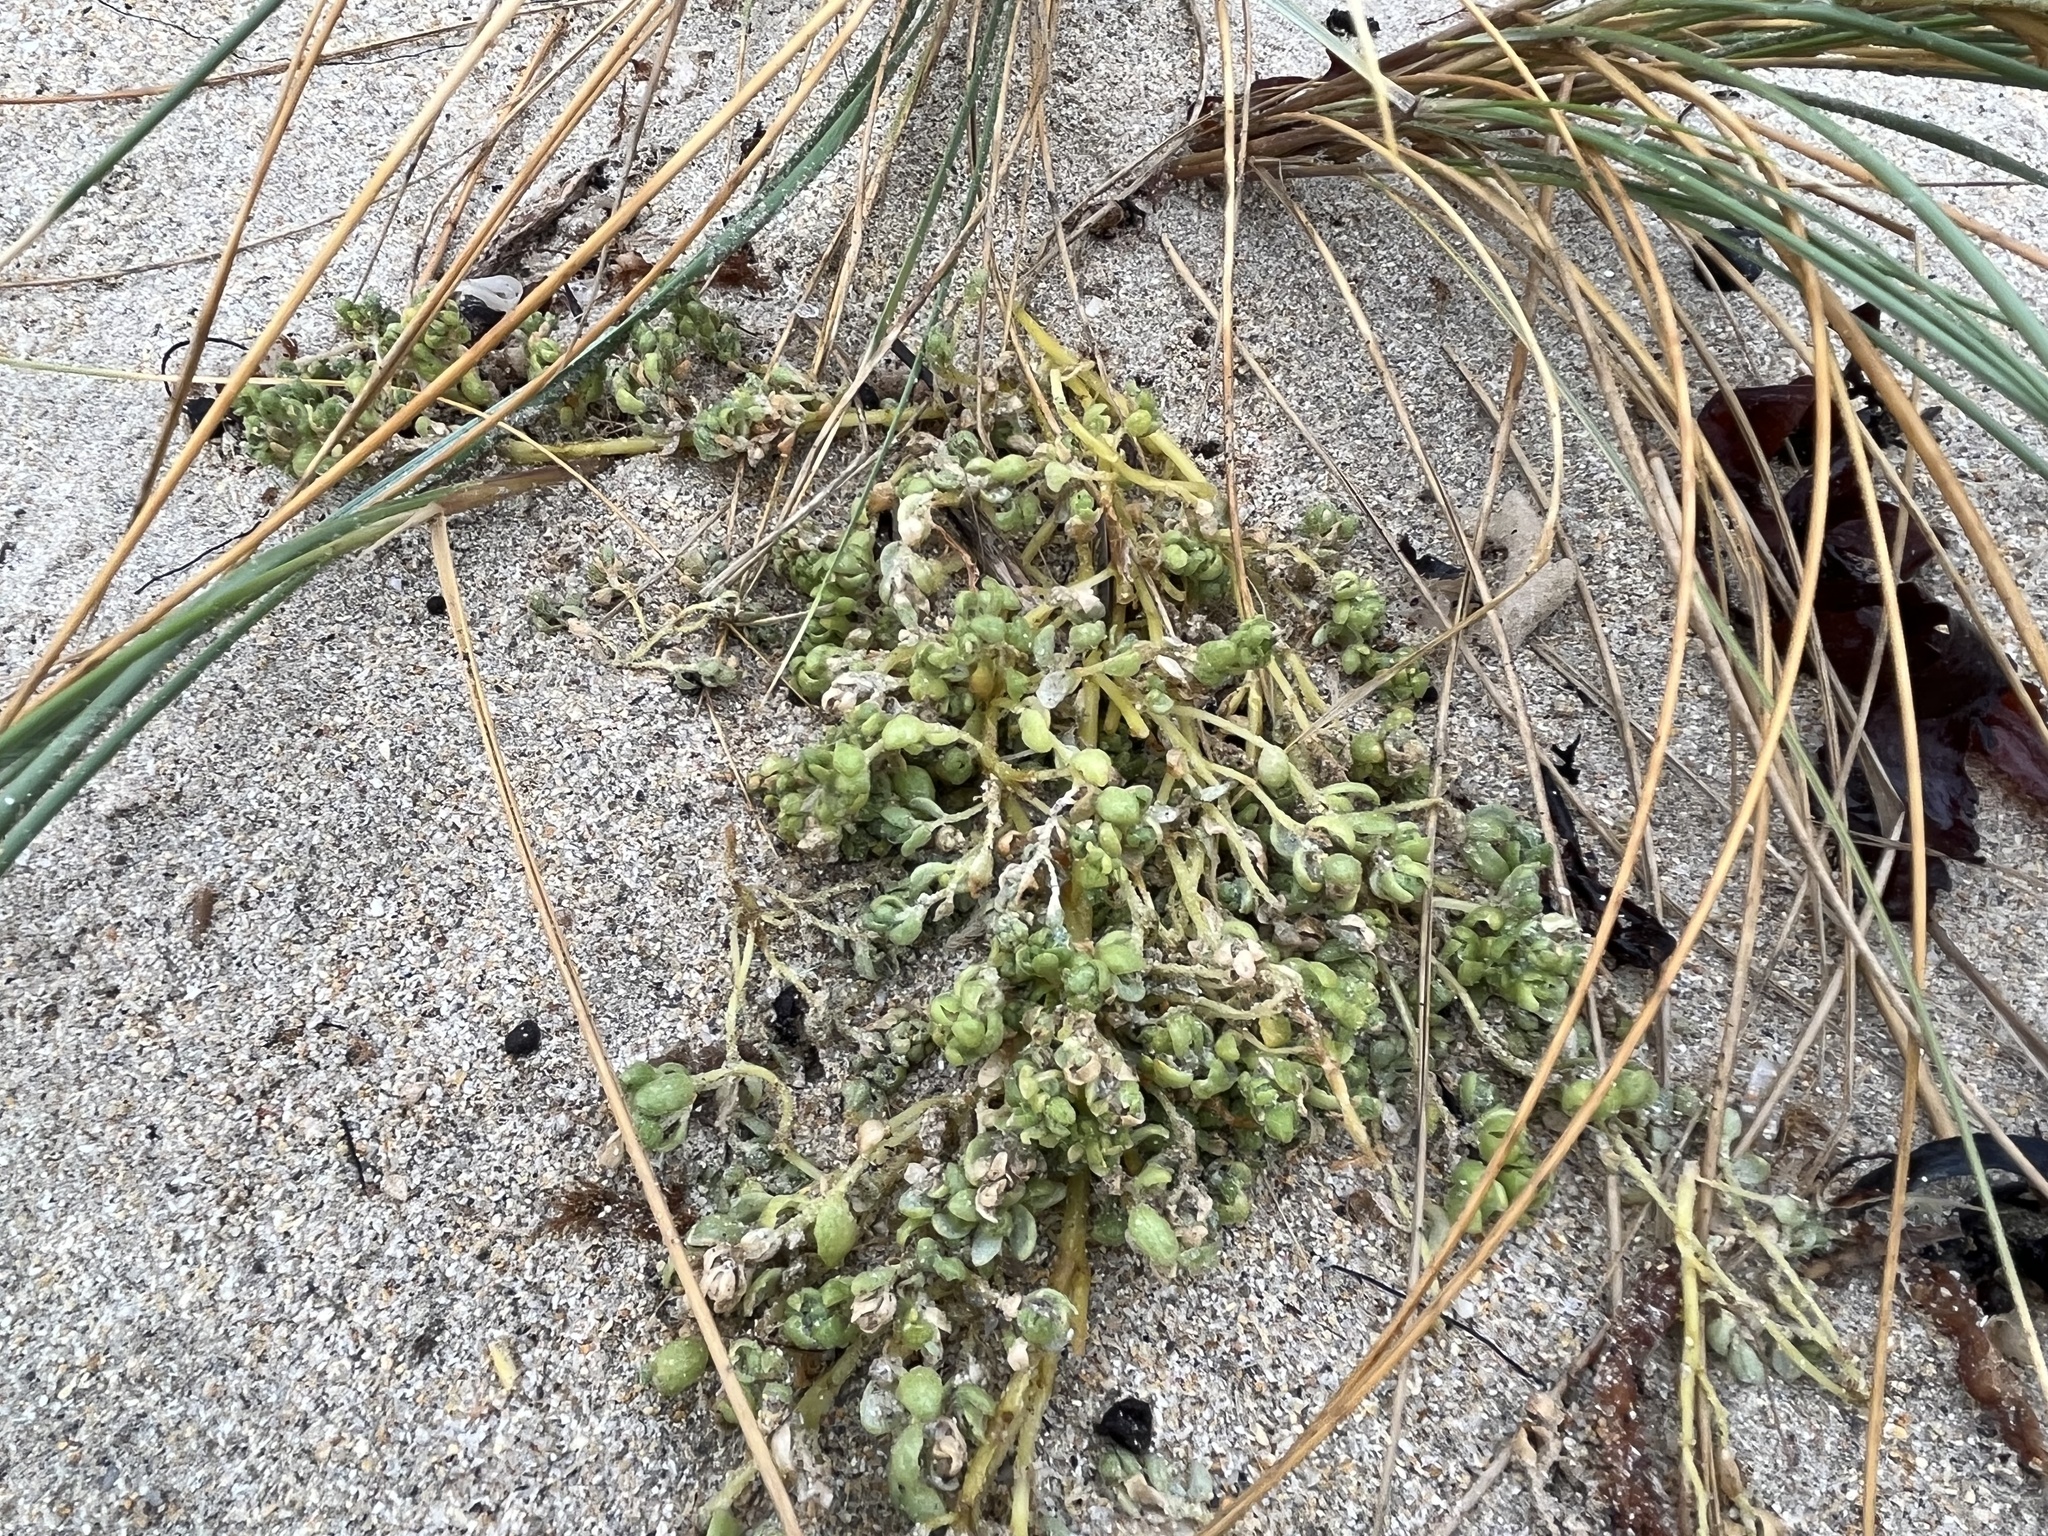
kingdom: Plantae
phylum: Tracheophyta
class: Magnoliopsida
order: Caryophyllales
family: Amaranthaceae
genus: Atriplex
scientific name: Atriplex billardierei
